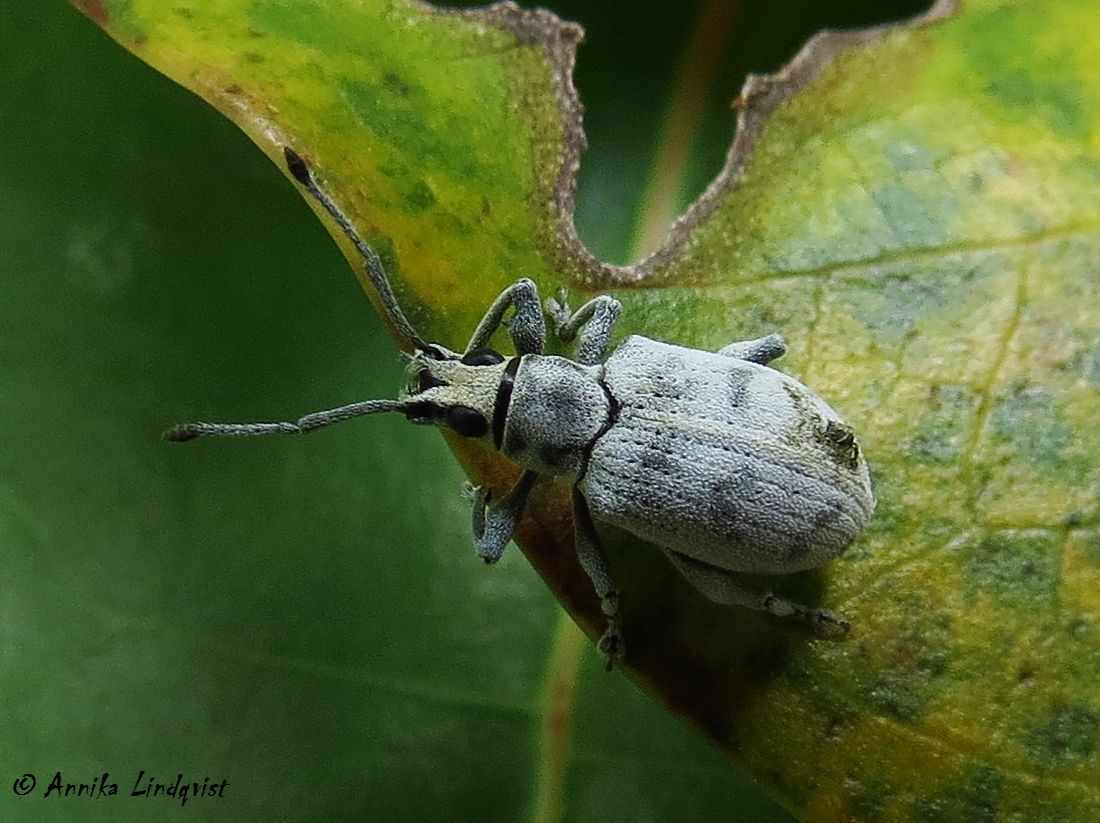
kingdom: Animalia
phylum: Arthropoda
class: Insecta
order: Coleoptera
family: Curculionidae
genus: Myllocerus
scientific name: Myllocerus undecimpustulatus
